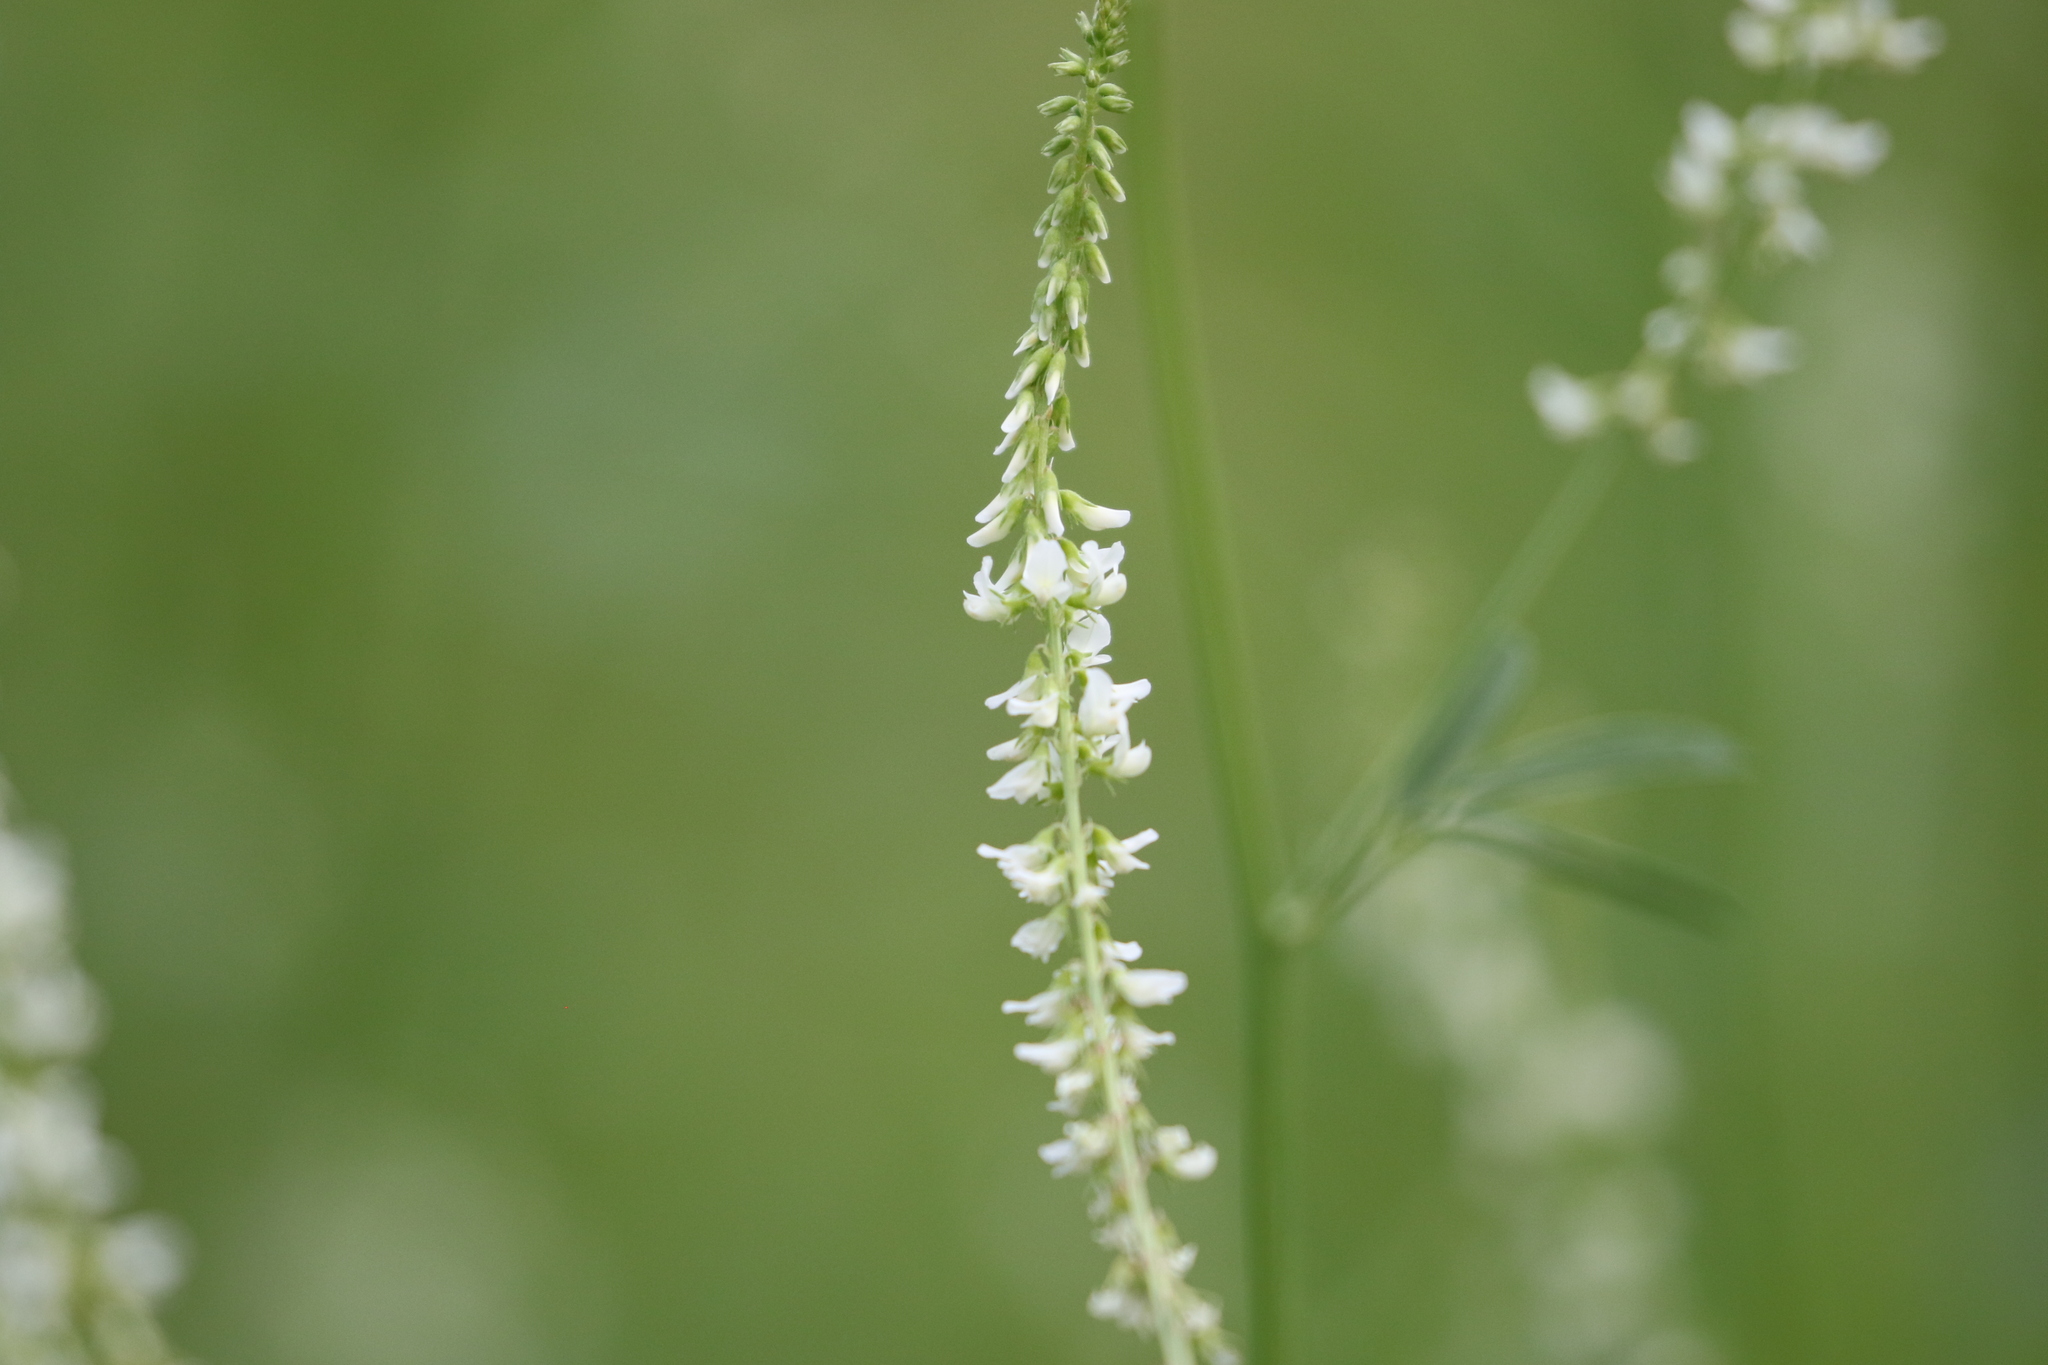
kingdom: Plantae
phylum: Tracheophyta
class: Magnoliopsida
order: Fabales
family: Fabaceae
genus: Melilotus
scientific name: Melilotus albus
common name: White melilot
